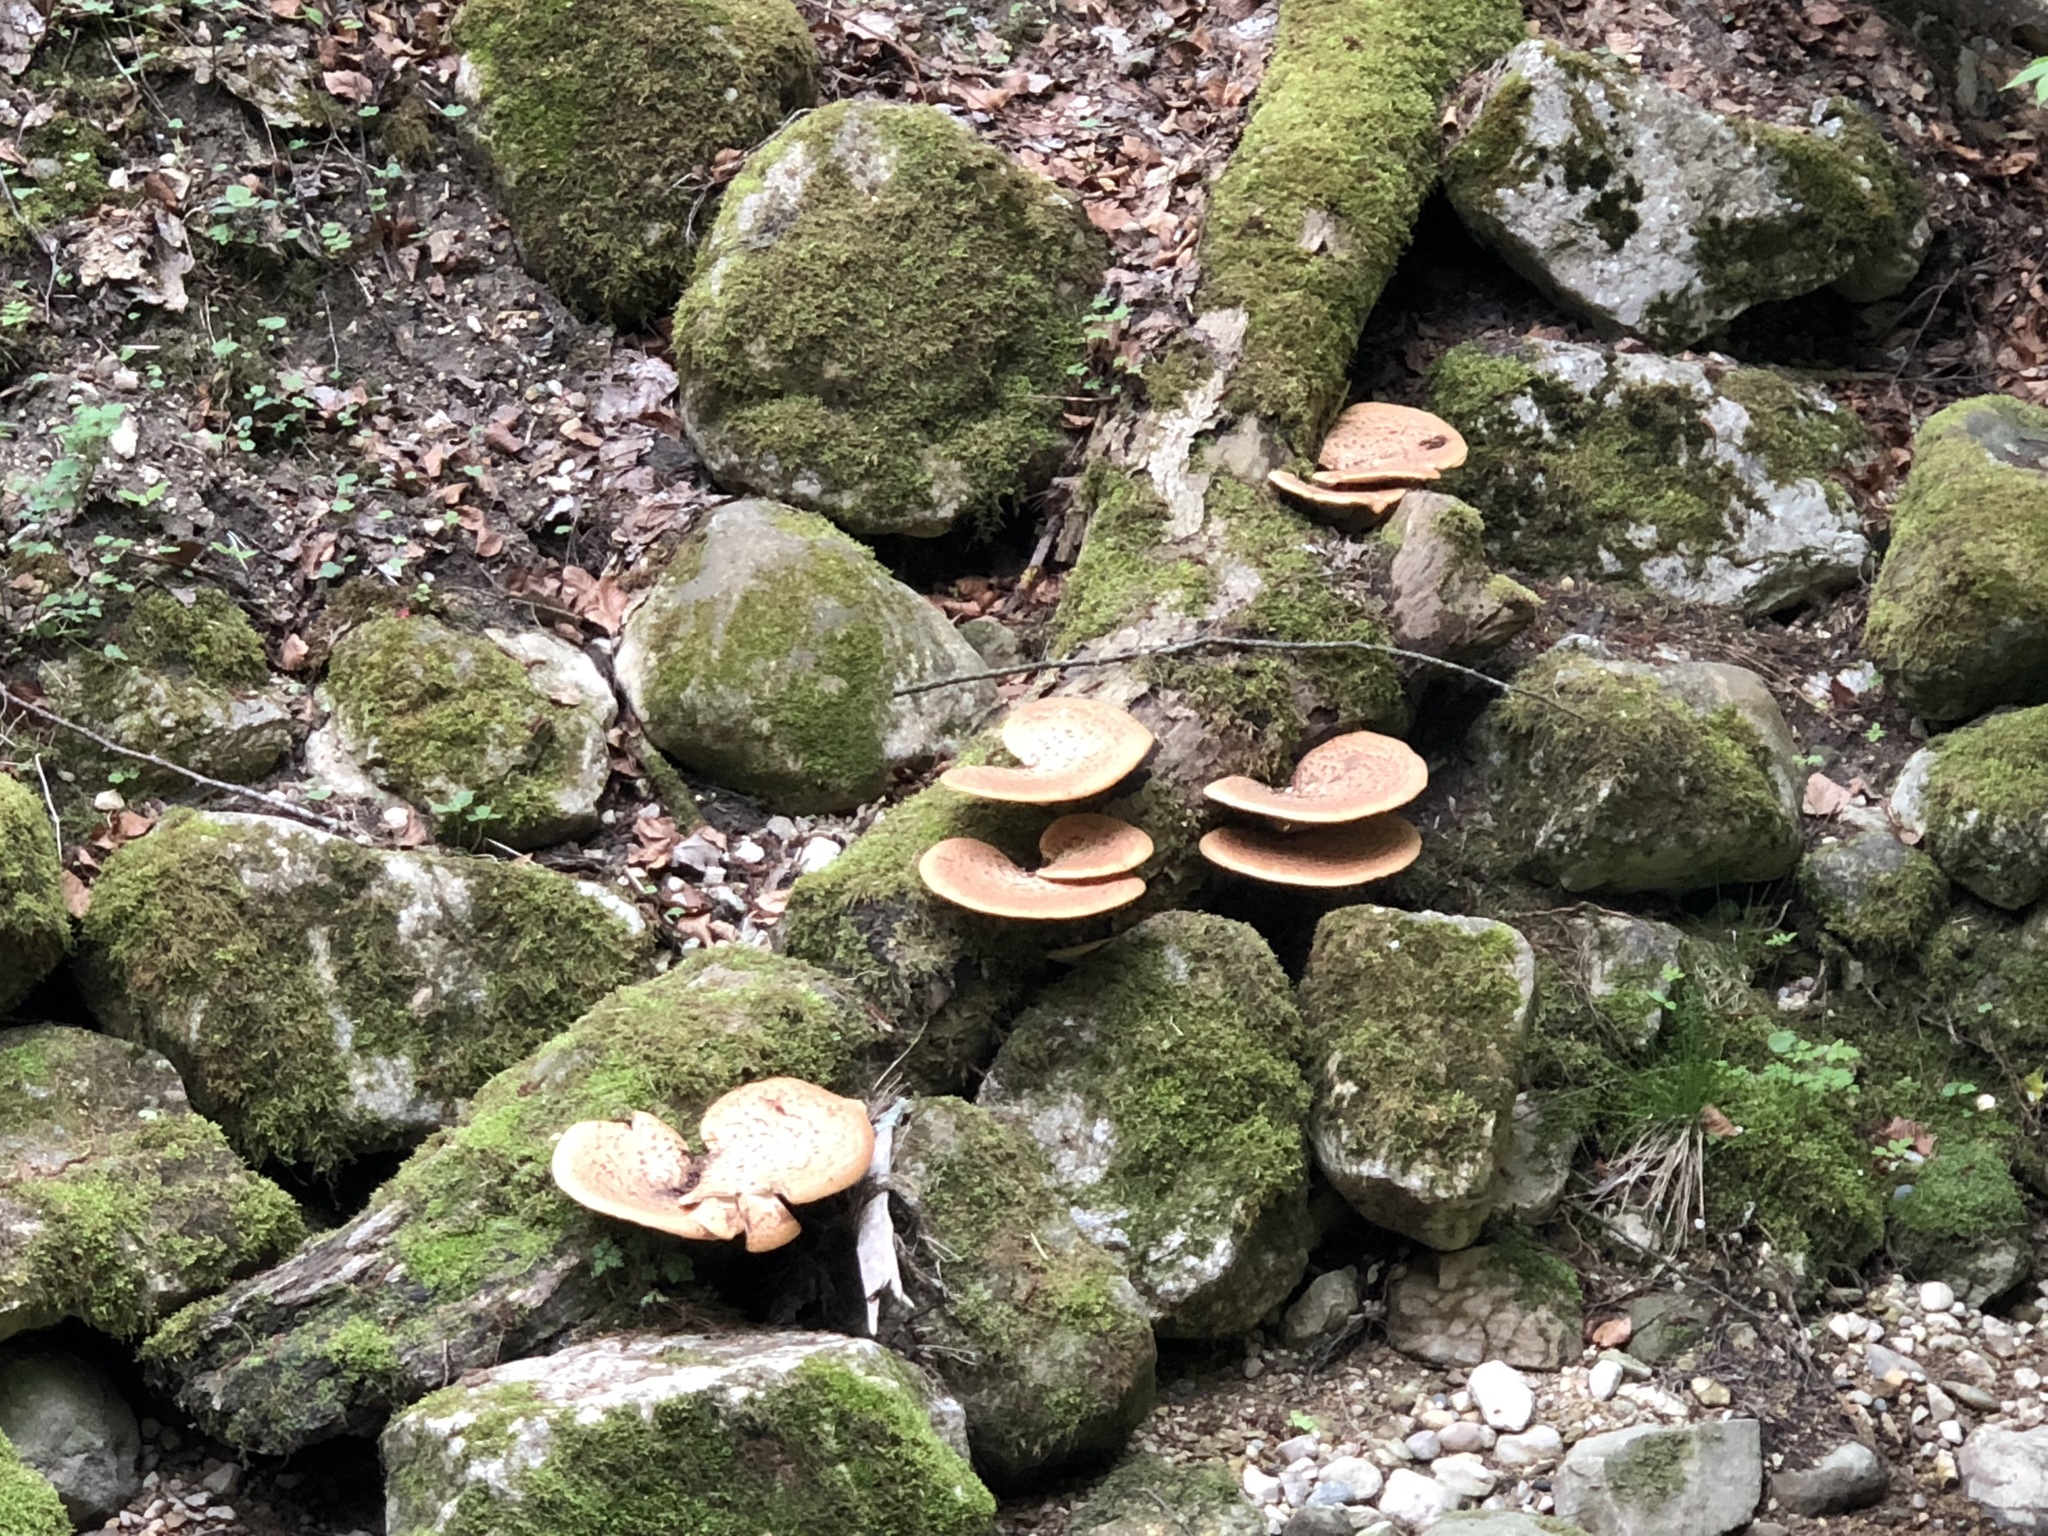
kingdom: Fungi
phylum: Basidiomycota
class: Agaricomycetes
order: Polyporales
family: Polyporaceae
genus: Cerioporus
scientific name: Cerioporus squamosus
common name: Dryad's saddle
